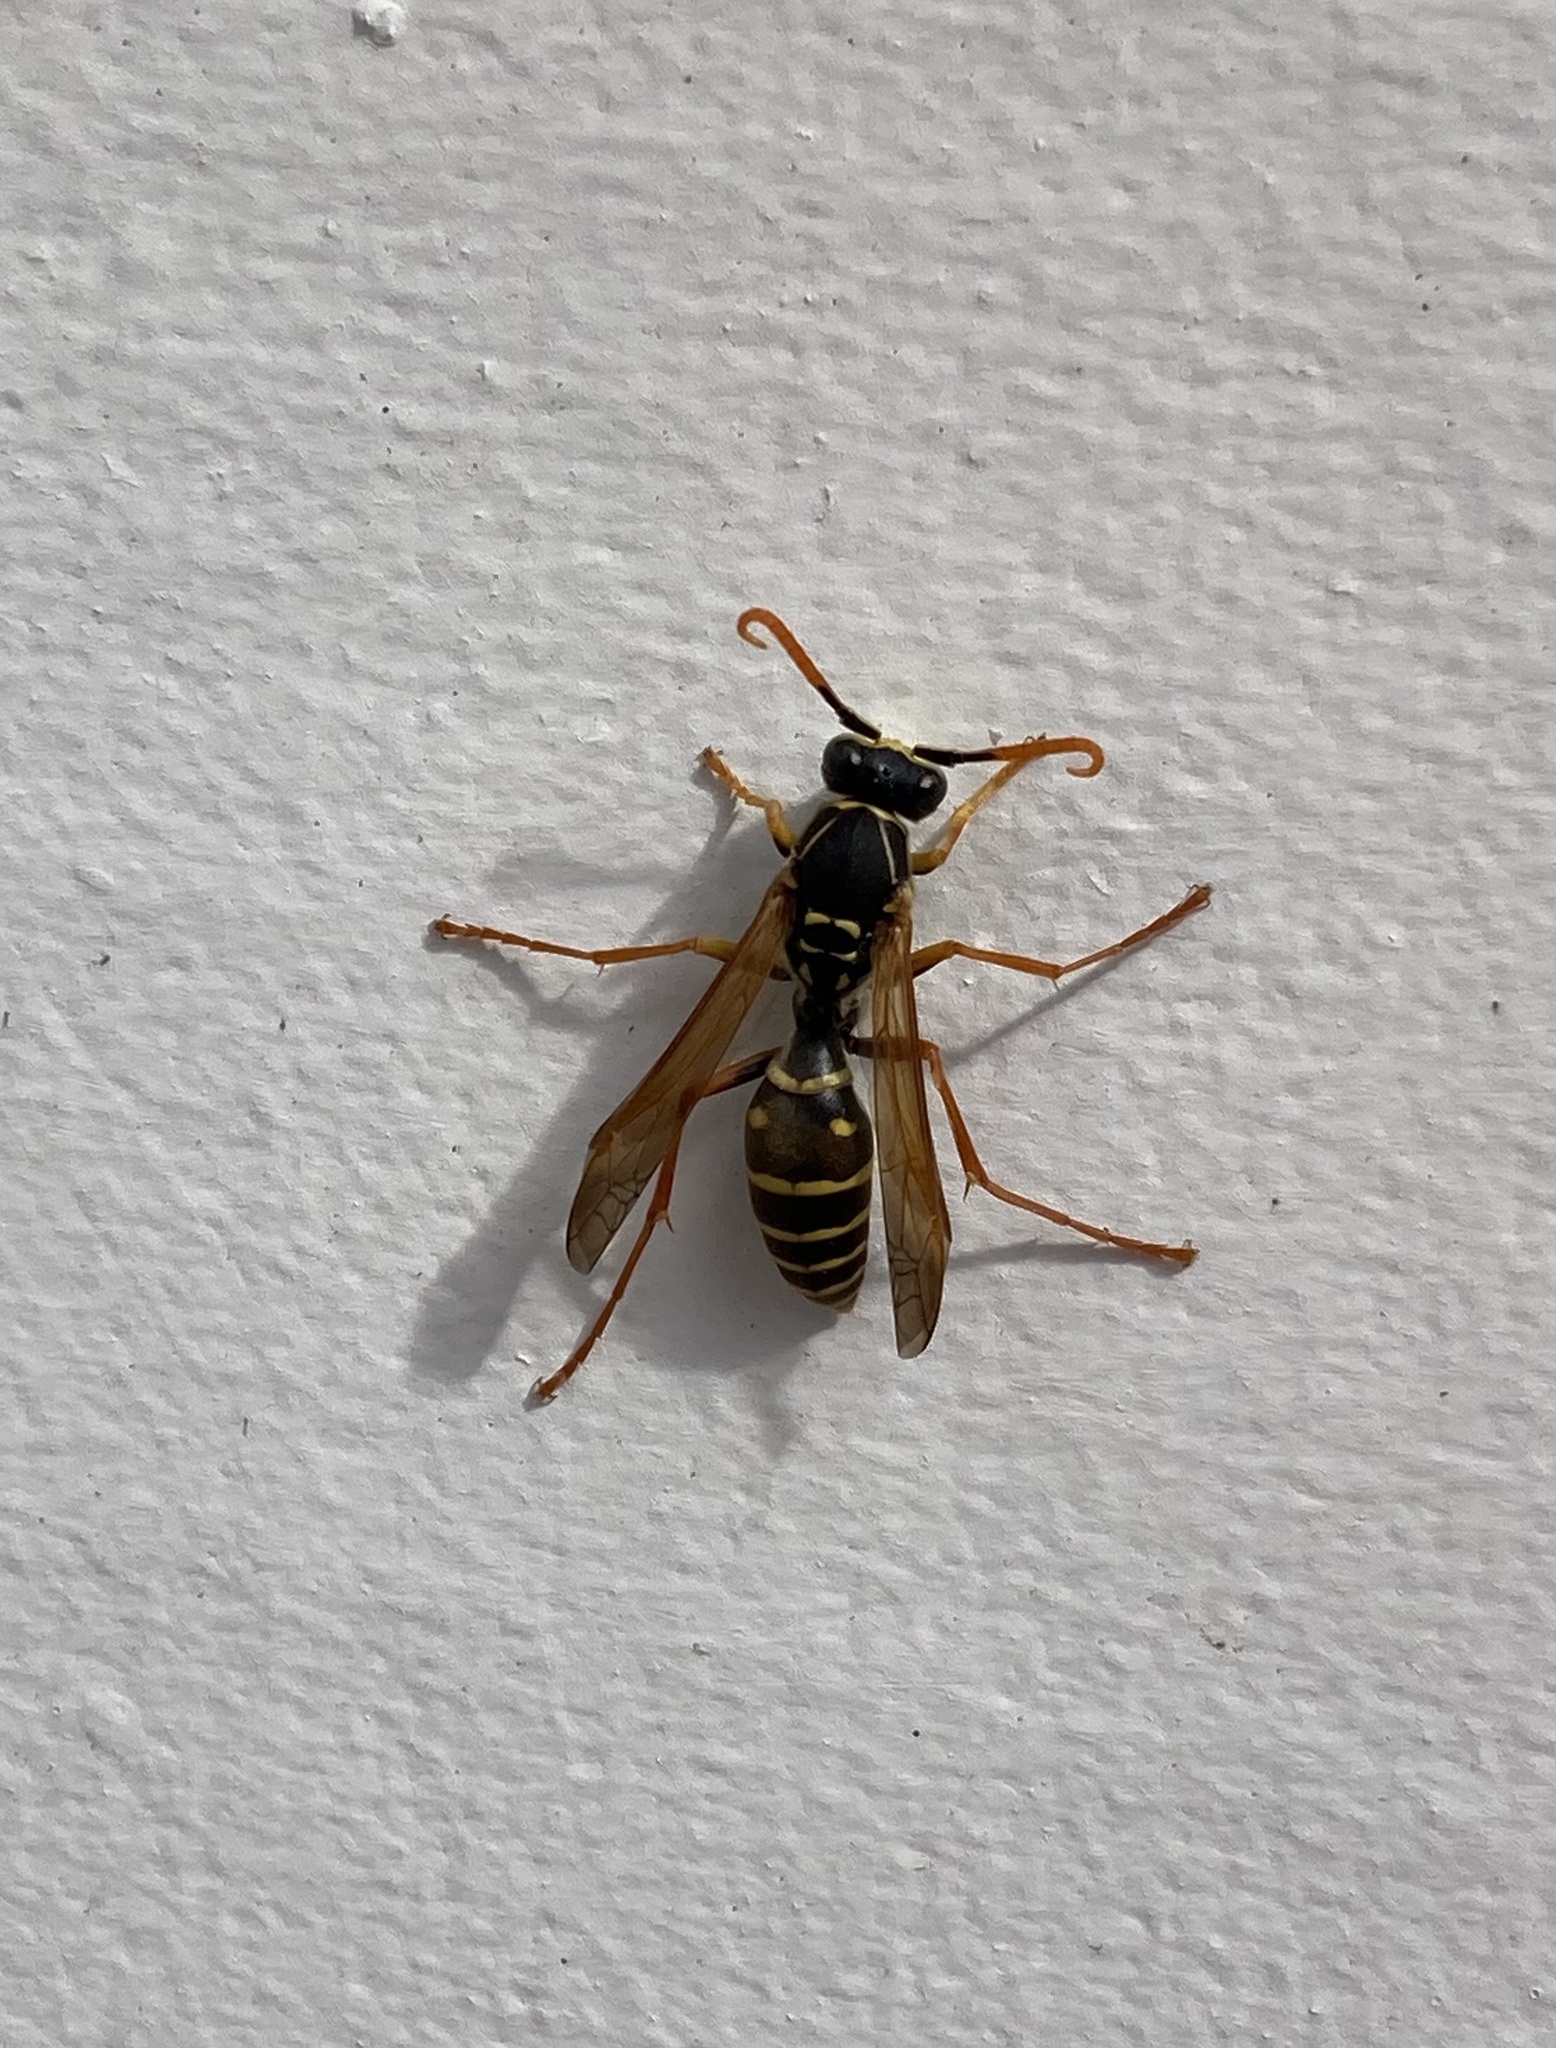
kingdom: Animalia
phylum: Arthropoda
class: Insecta
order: Hymenoptera
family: Eumenidae
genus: Polistes
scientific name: Polistes chinensis
